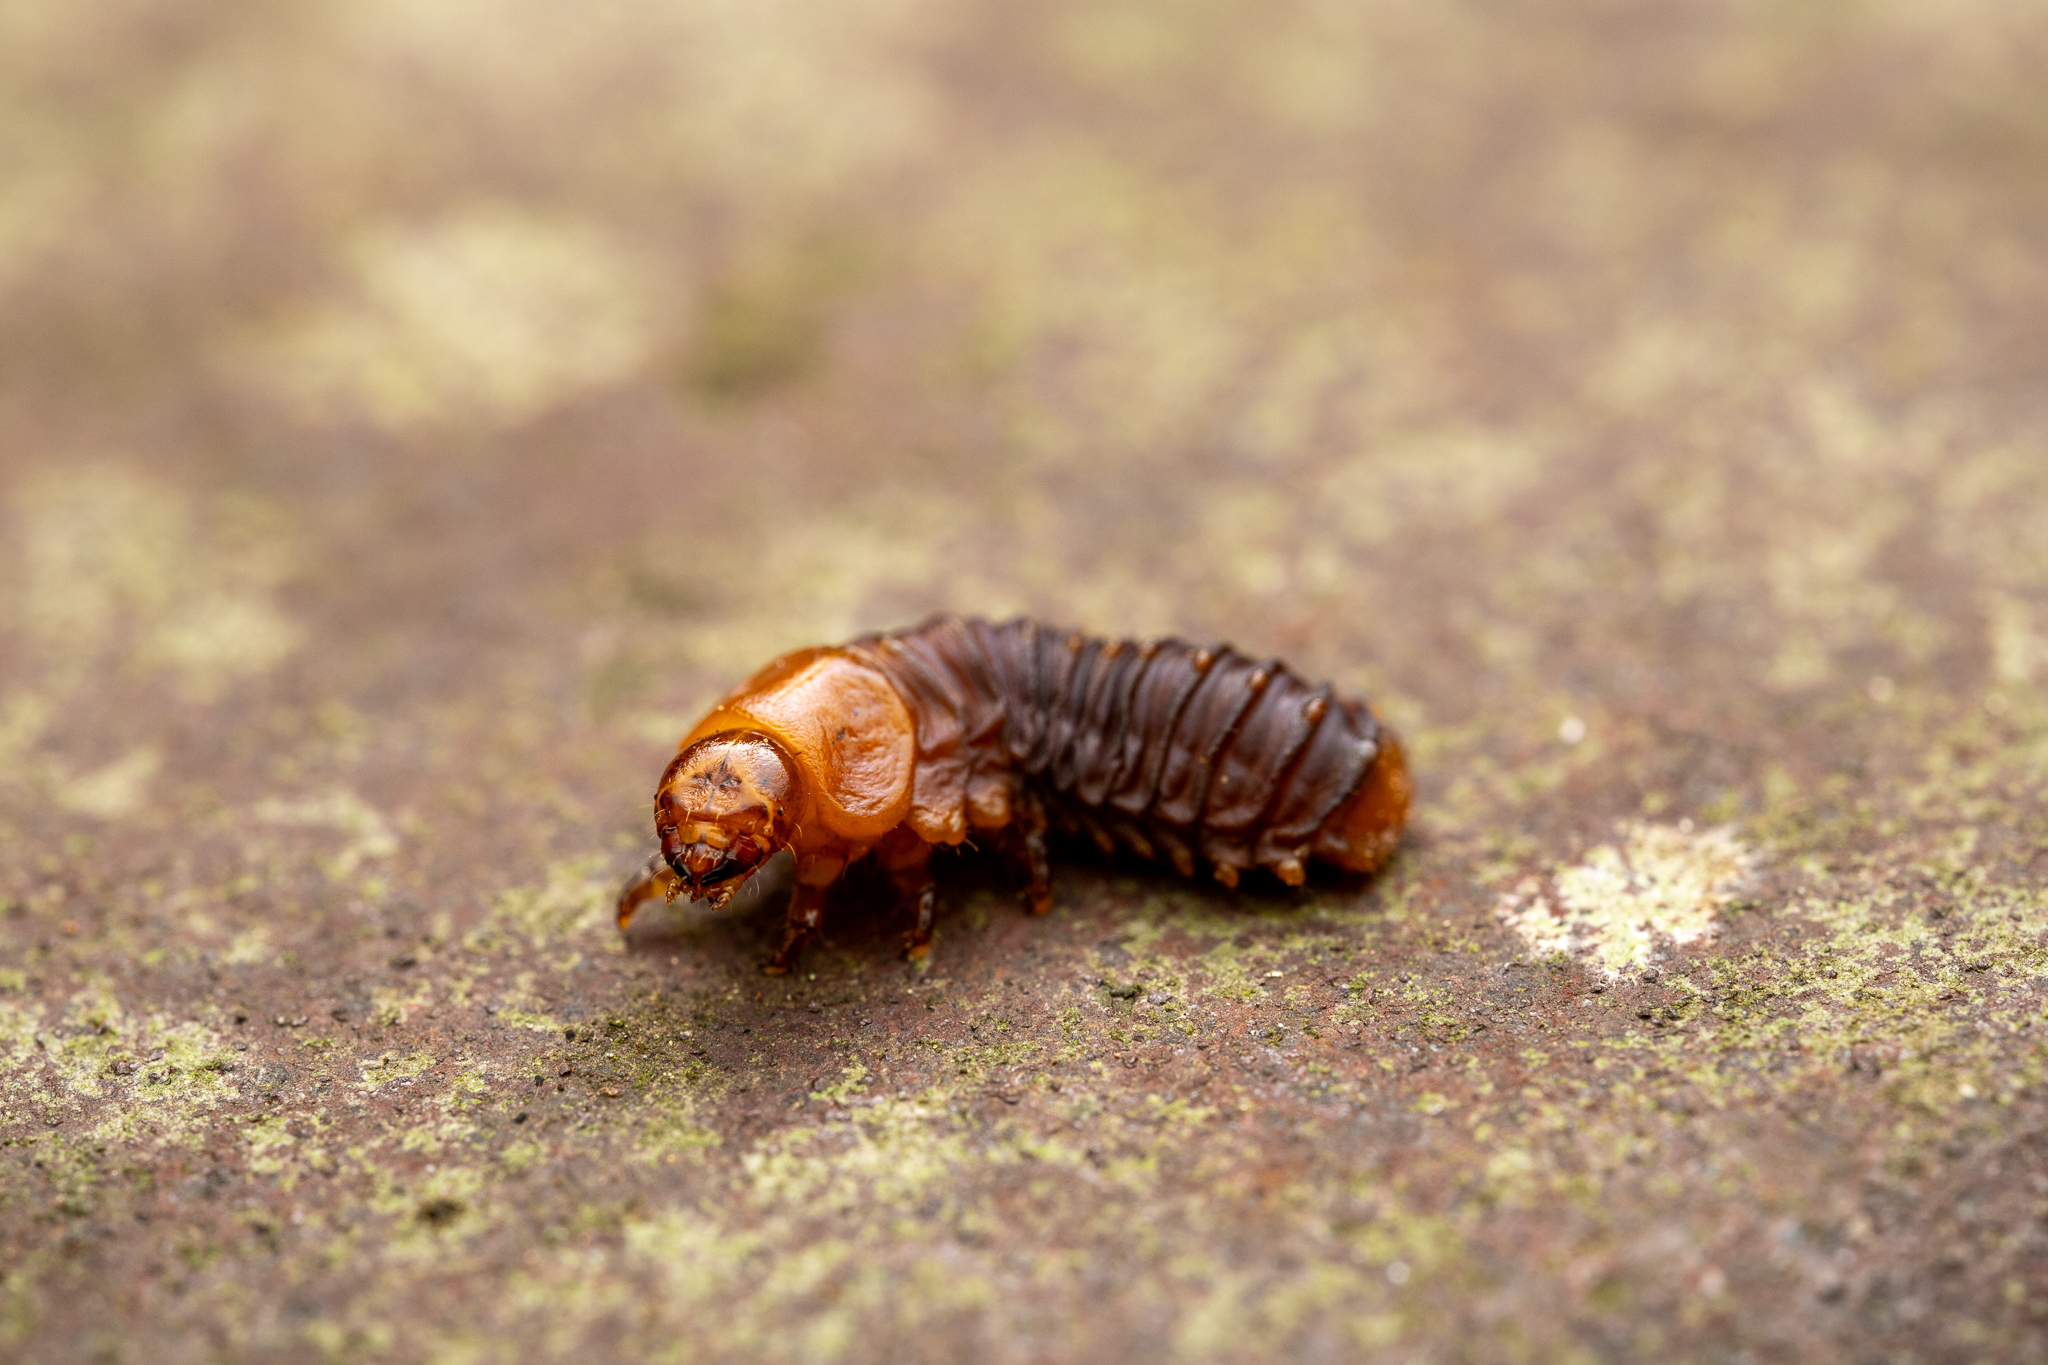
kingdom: Animalia
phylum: Arthropoda
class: Insecta
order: Coleoptera
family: Chrysomelidae
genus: Monocesta
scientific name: Monocesta coryli
